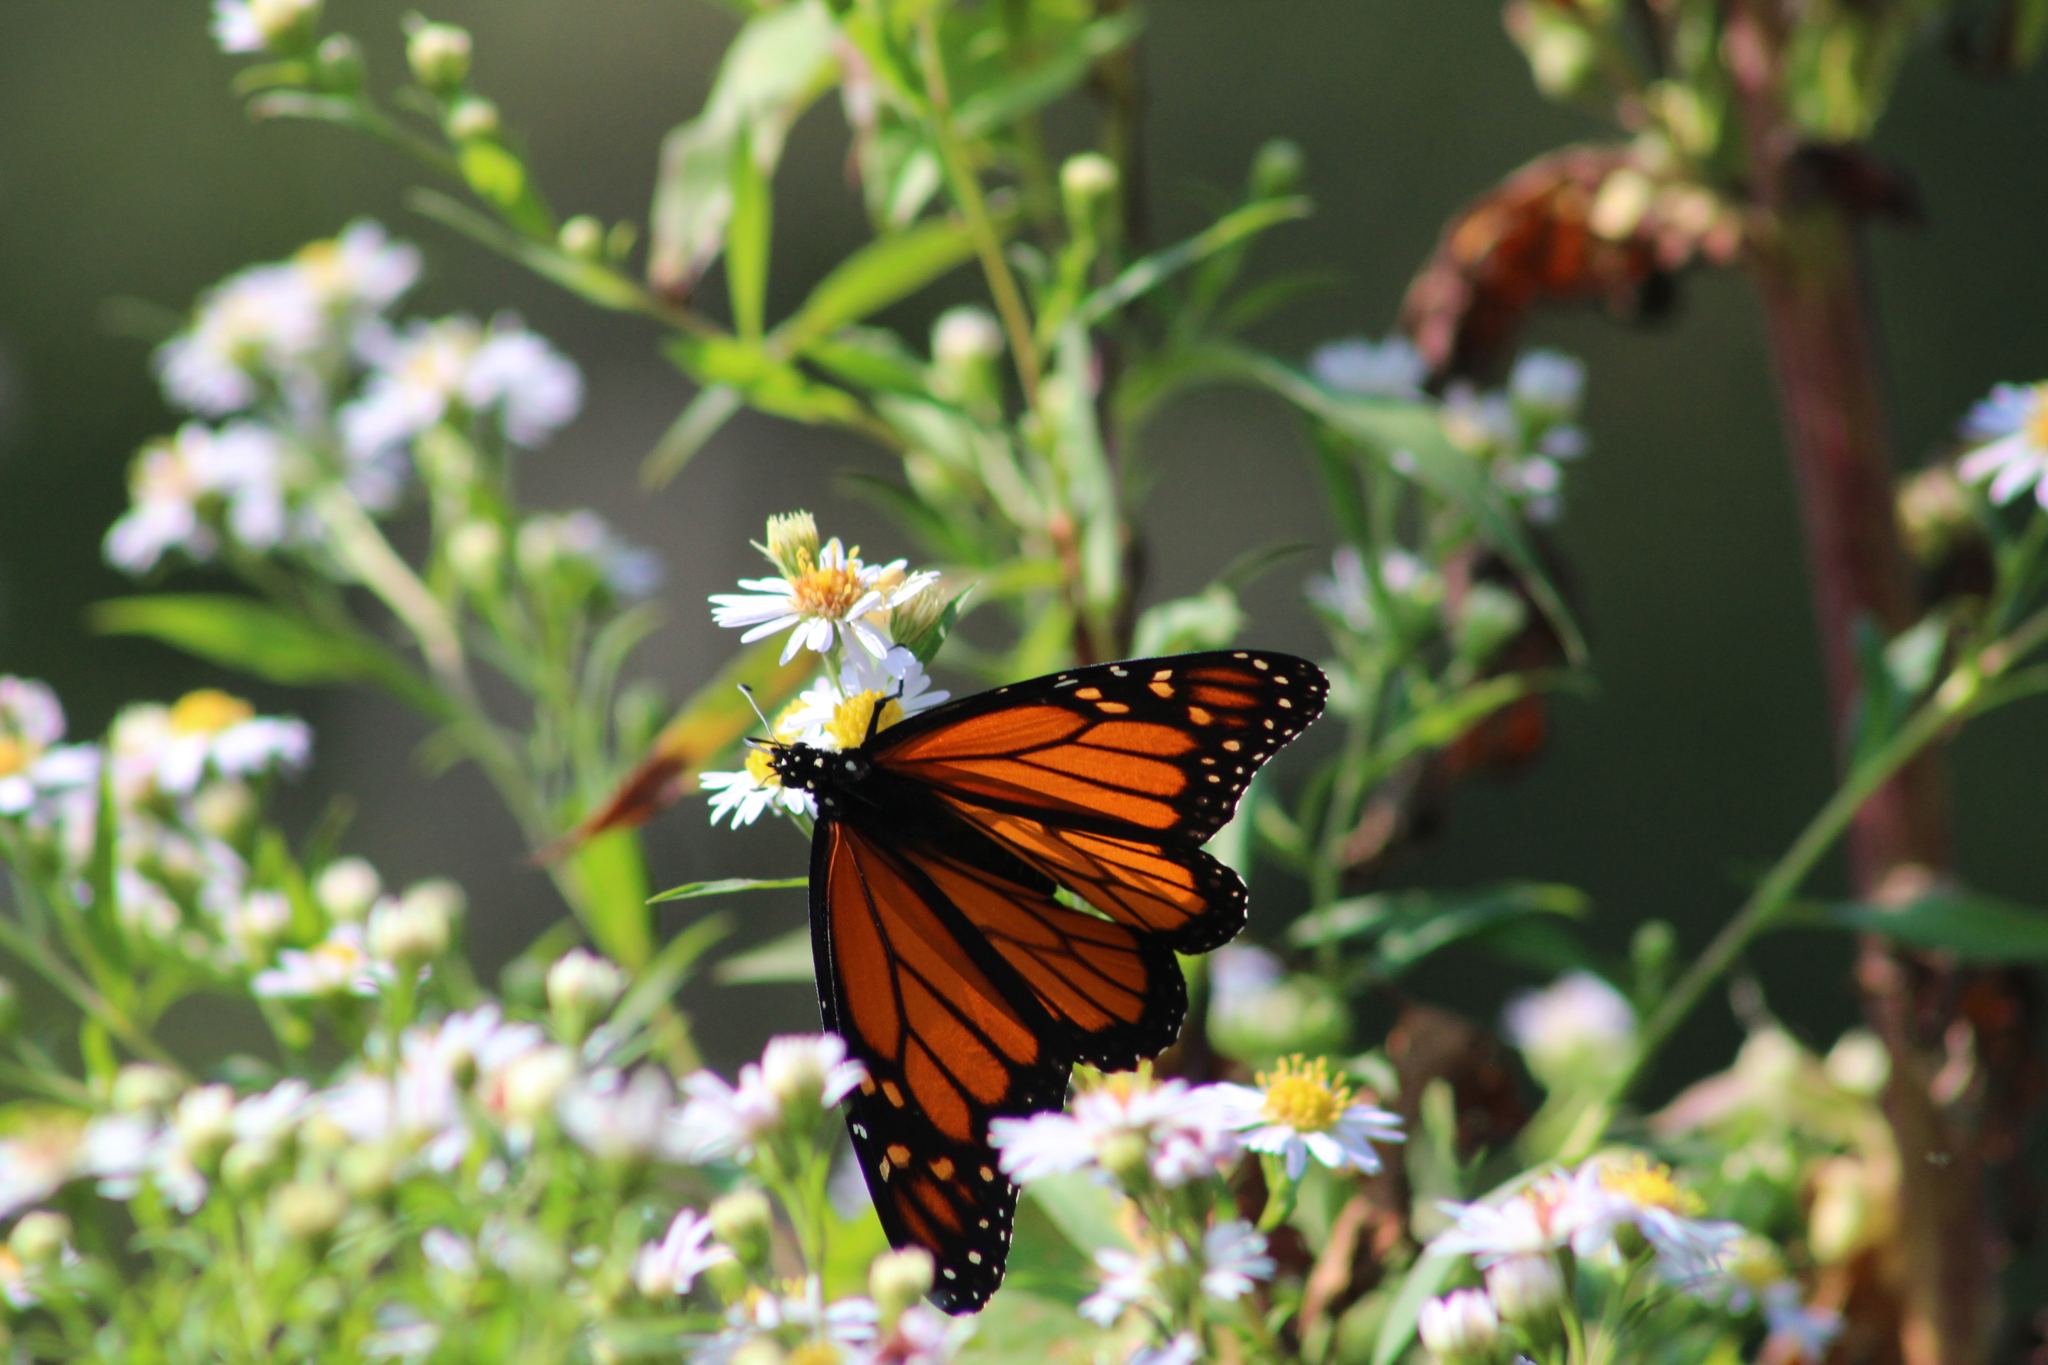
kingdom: Animalia
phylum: Arthropoda
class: Insecta
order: Lepidoptera
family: Nymphalidae
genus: Danaus
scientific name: Danaus plexippus
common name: Monarch
